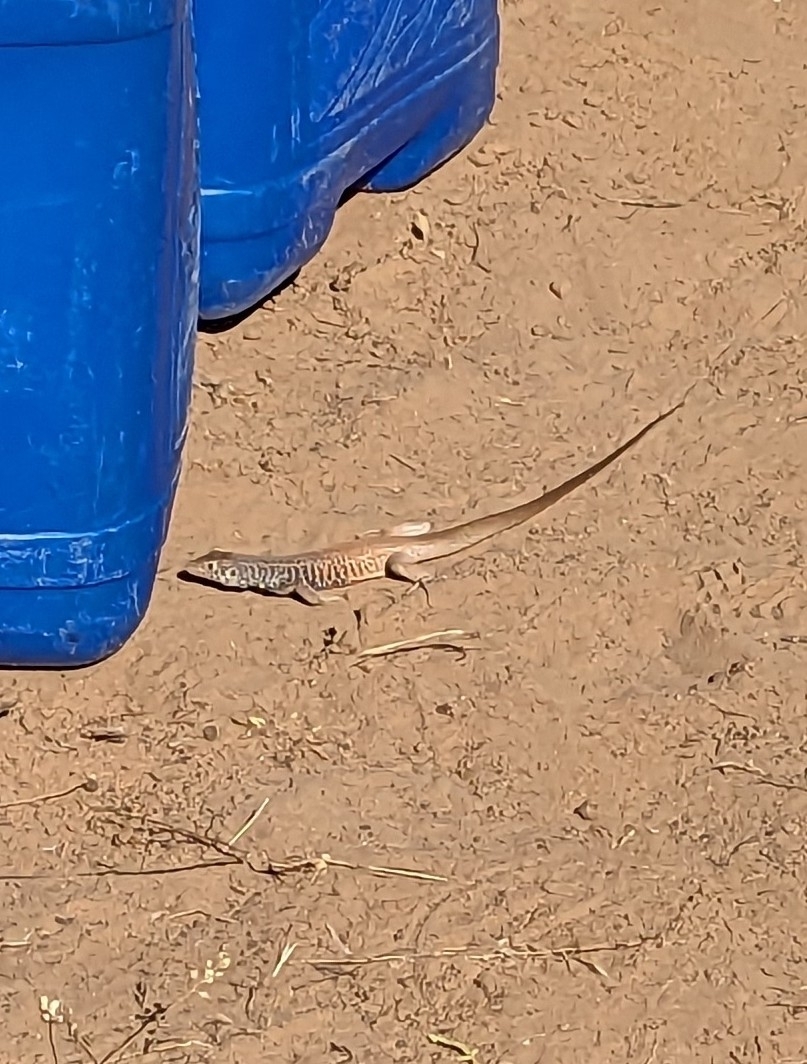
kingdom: Animalia
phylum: Chordata
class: Squamata
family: Teiidae
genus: Aspidoscelis
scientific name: Aspidoscelis tigris
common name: Tiger whiptail
